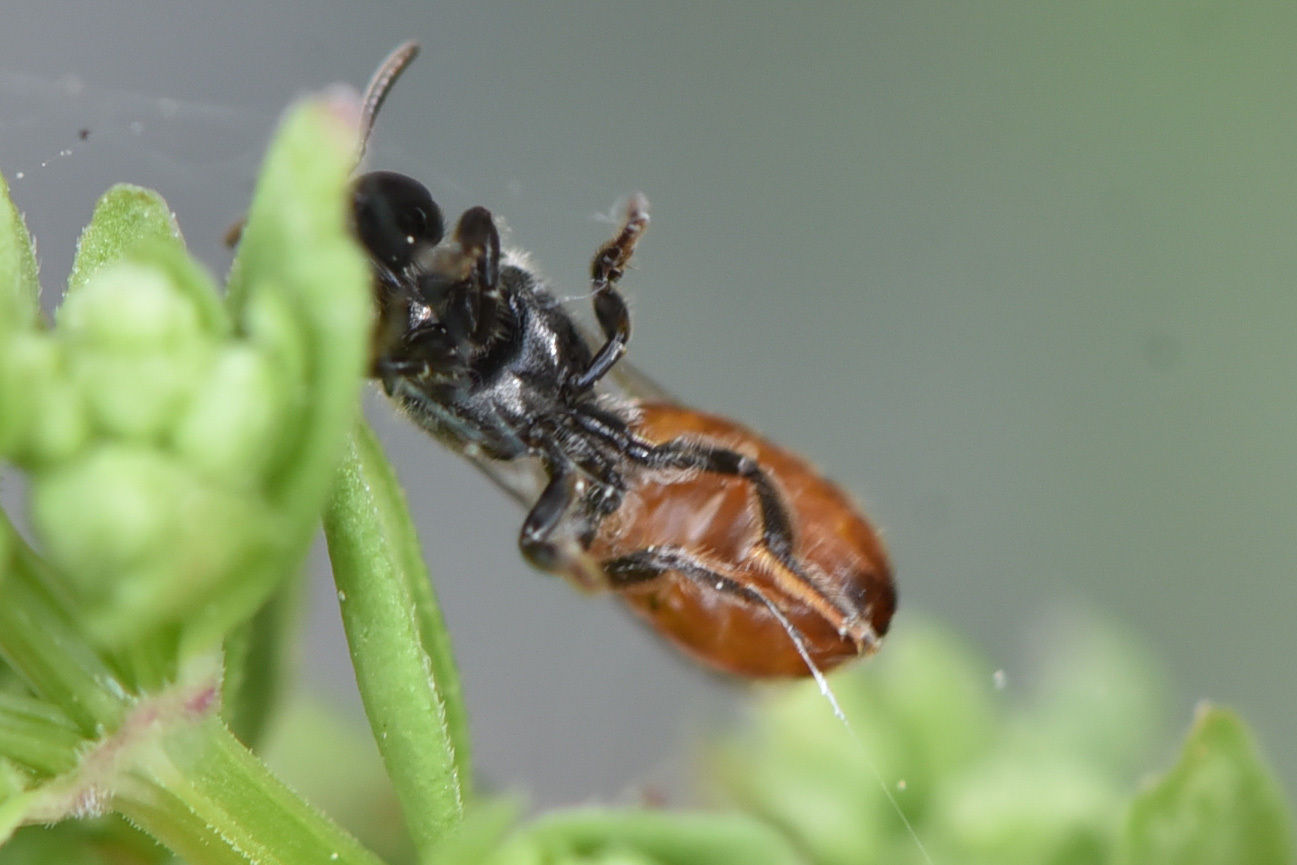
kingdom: Animalia
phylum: Arthropoda
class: Insecta
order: Hymenoptera
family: Halictidae
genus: Lasioglossum
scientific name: Lasioglossum ovaliceps
